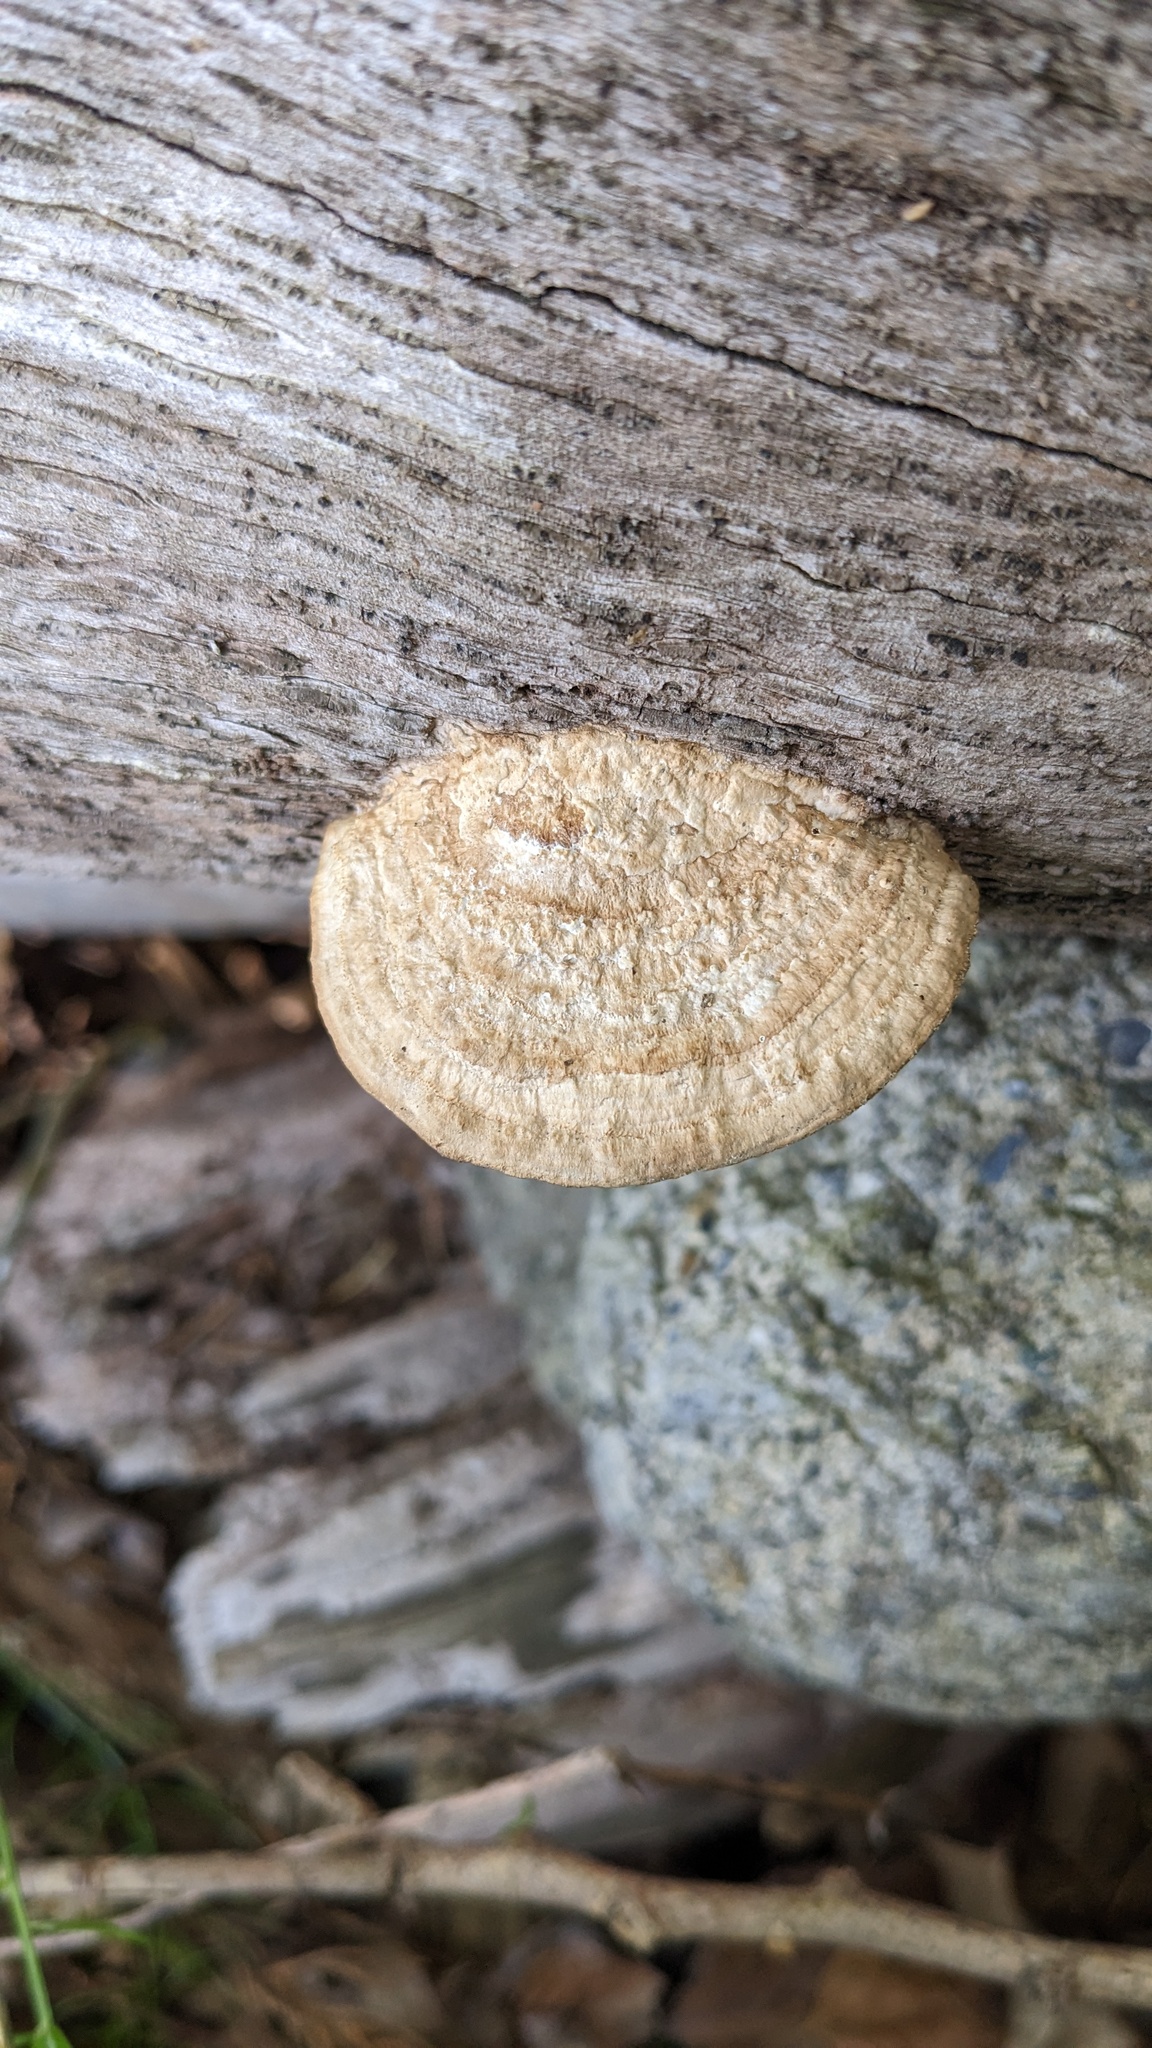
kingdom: Fungi
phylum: Basidiomycota
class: Agaricomycetes
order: Polyporales
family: Fomitopsidaceae
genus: Fomitopsis
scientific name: Fomitopsis
